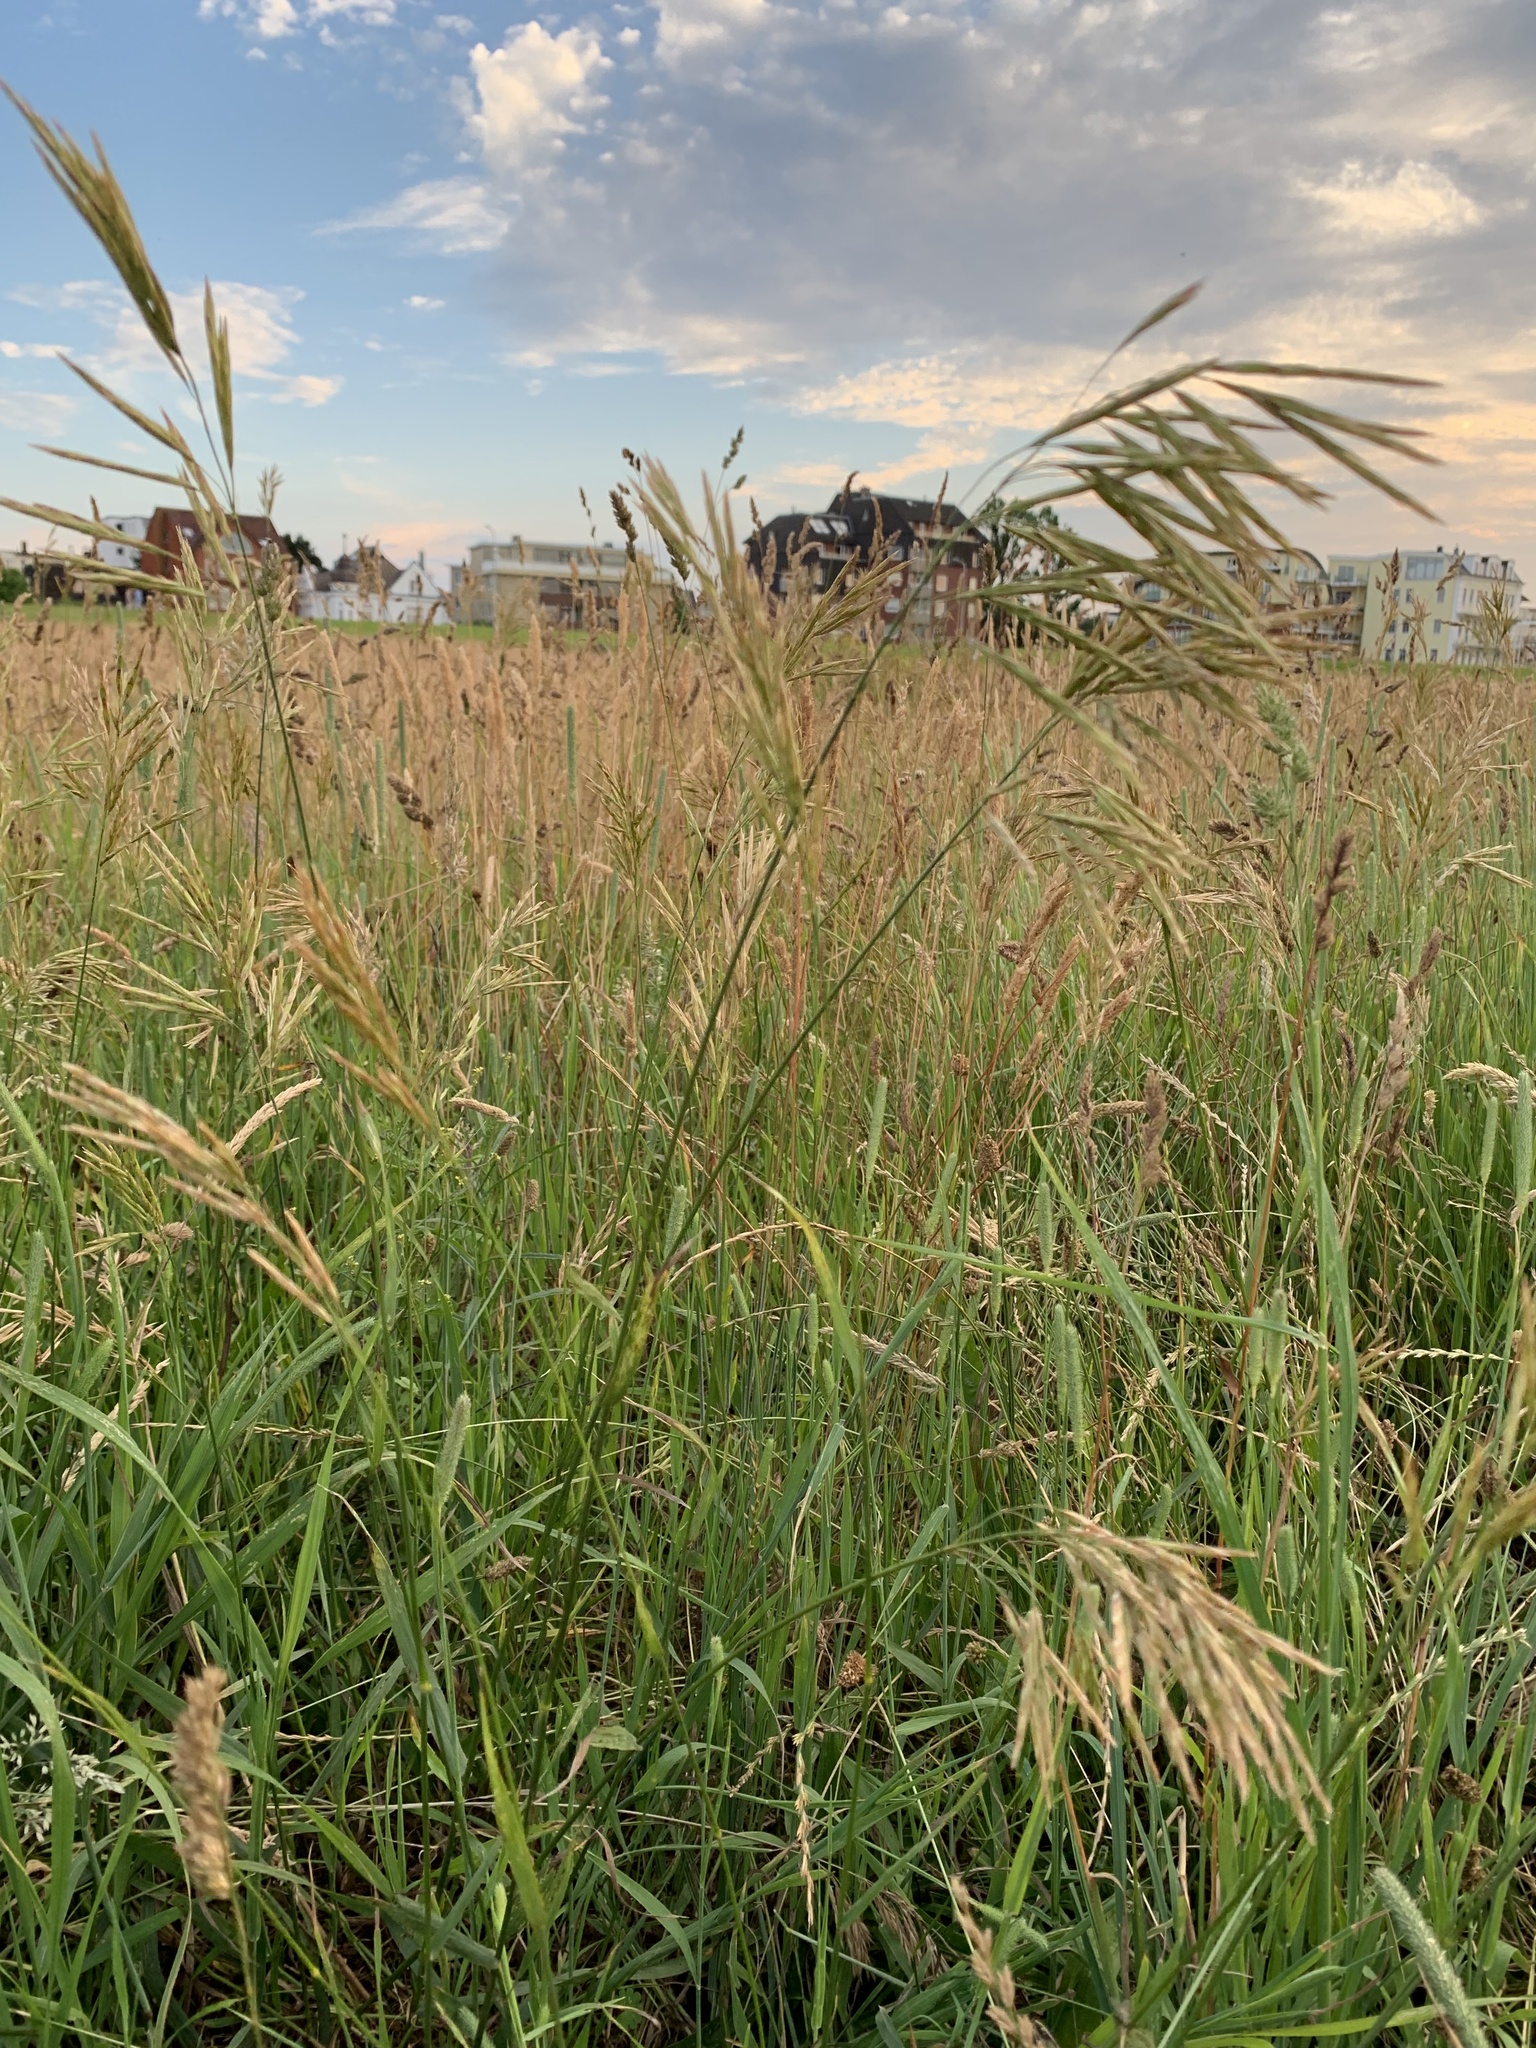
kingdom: Plantae
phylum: Tracheophyta
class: Liliopsida
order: Poales
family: Poaceae
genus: Bromus
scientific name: Bromus inermis
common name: Smooth brome
